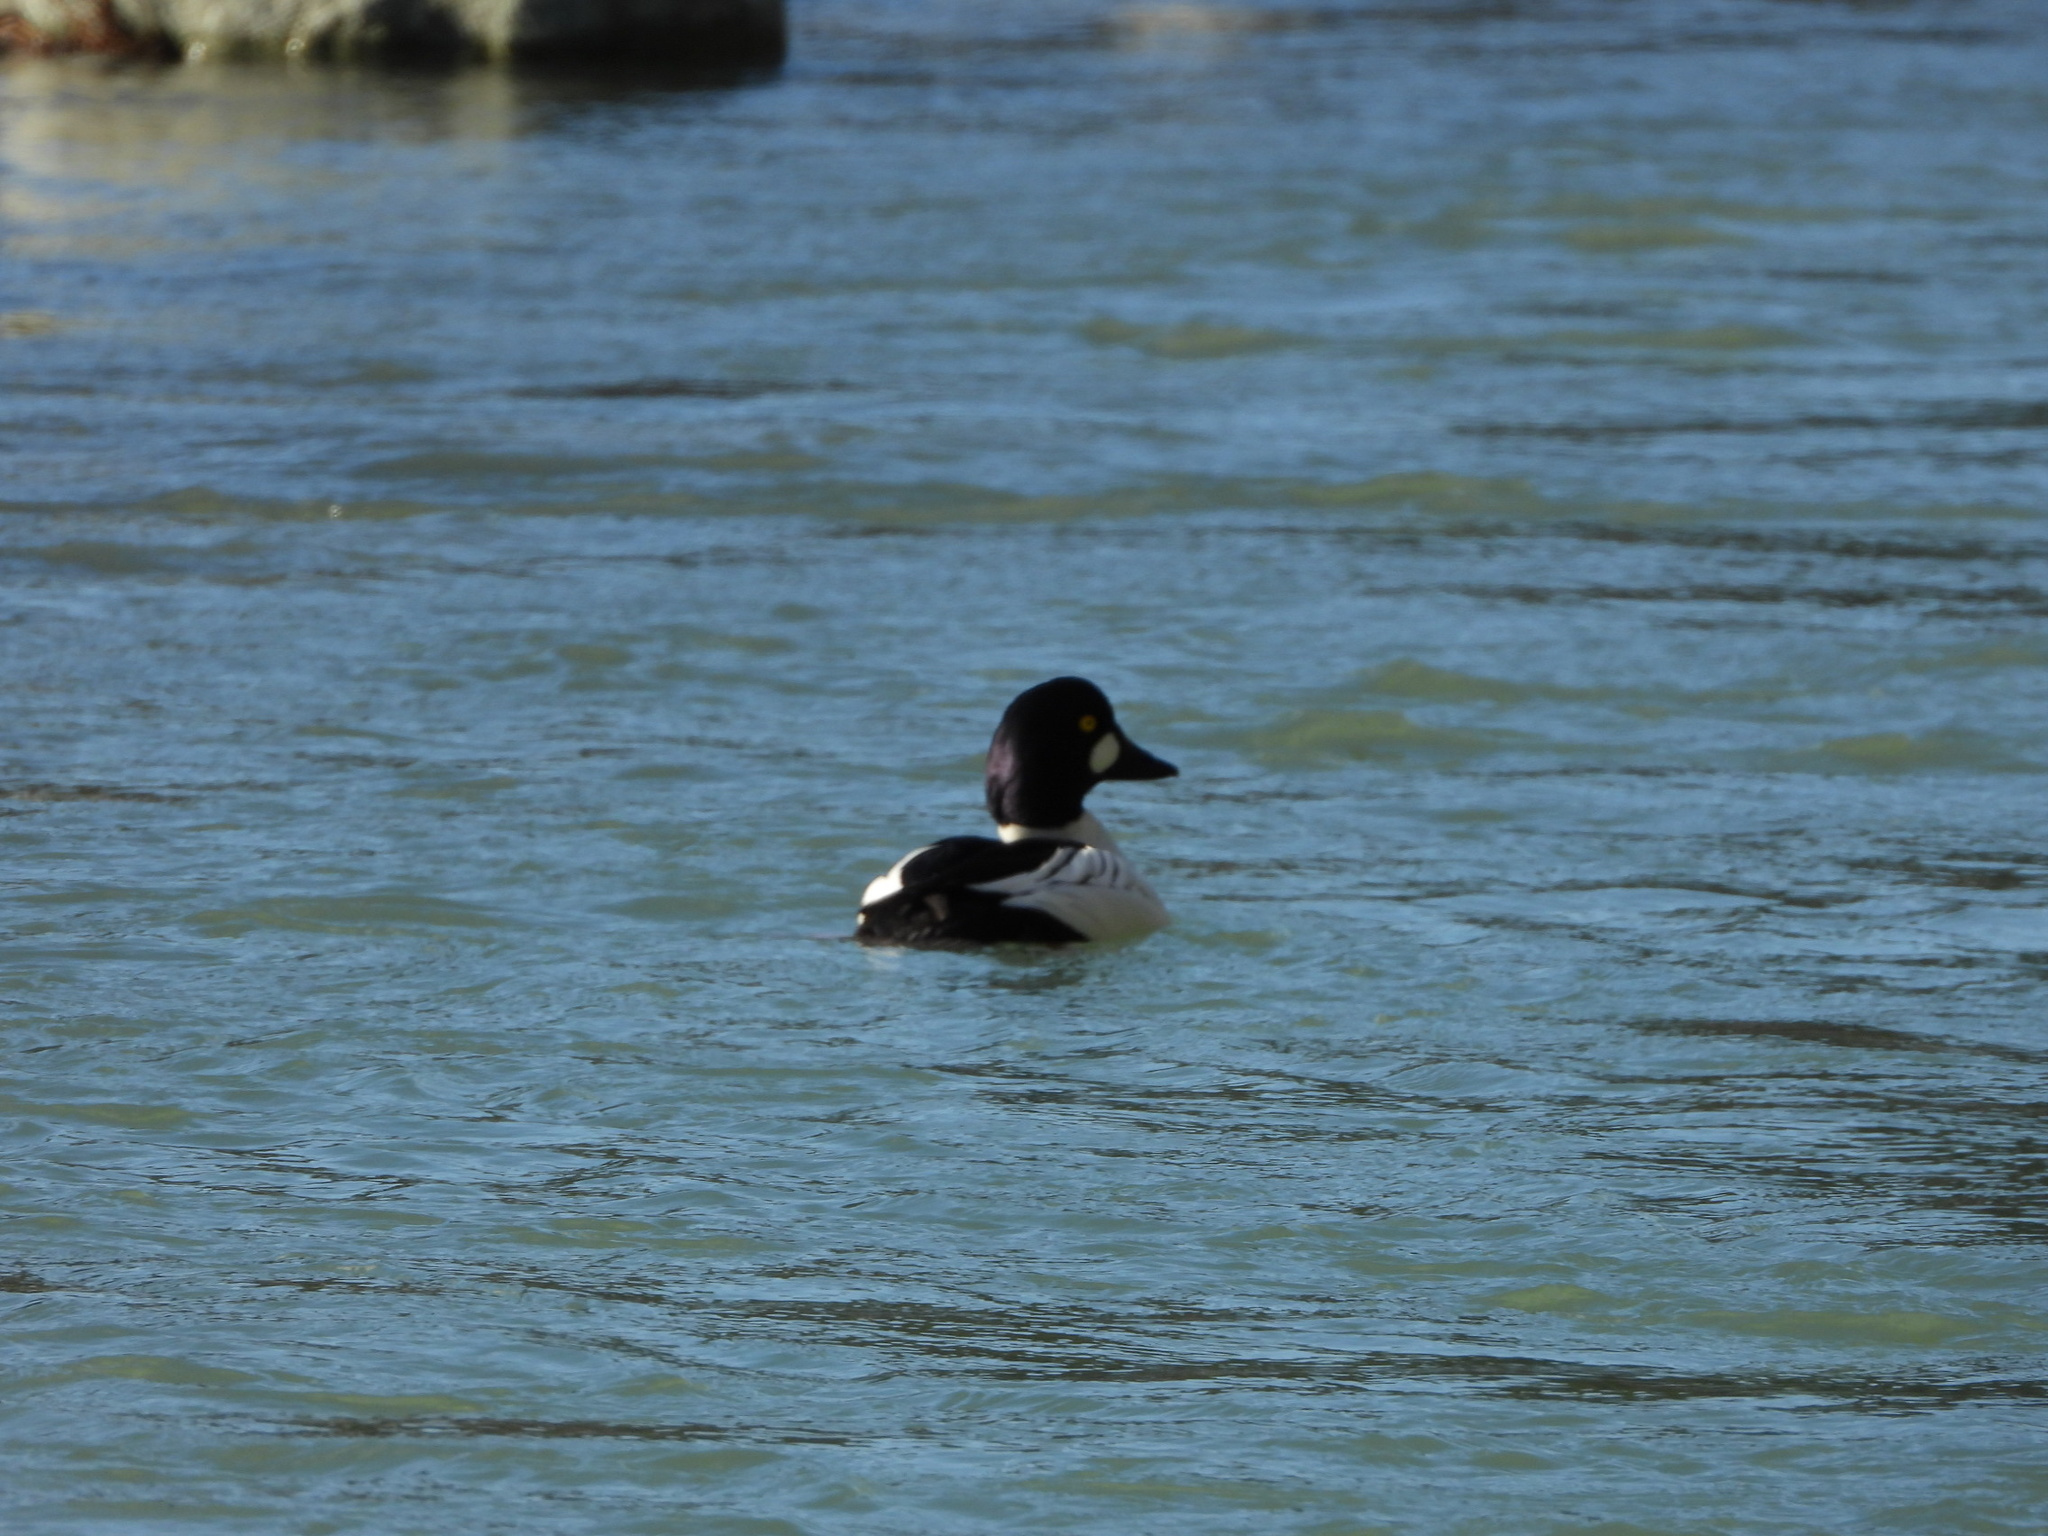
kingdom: Animalia
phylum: Chordata
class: Aves
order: Anseriformes
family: Anatidae
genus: Bucephala
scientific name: Bucephala clangula
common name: Common goldeneye
